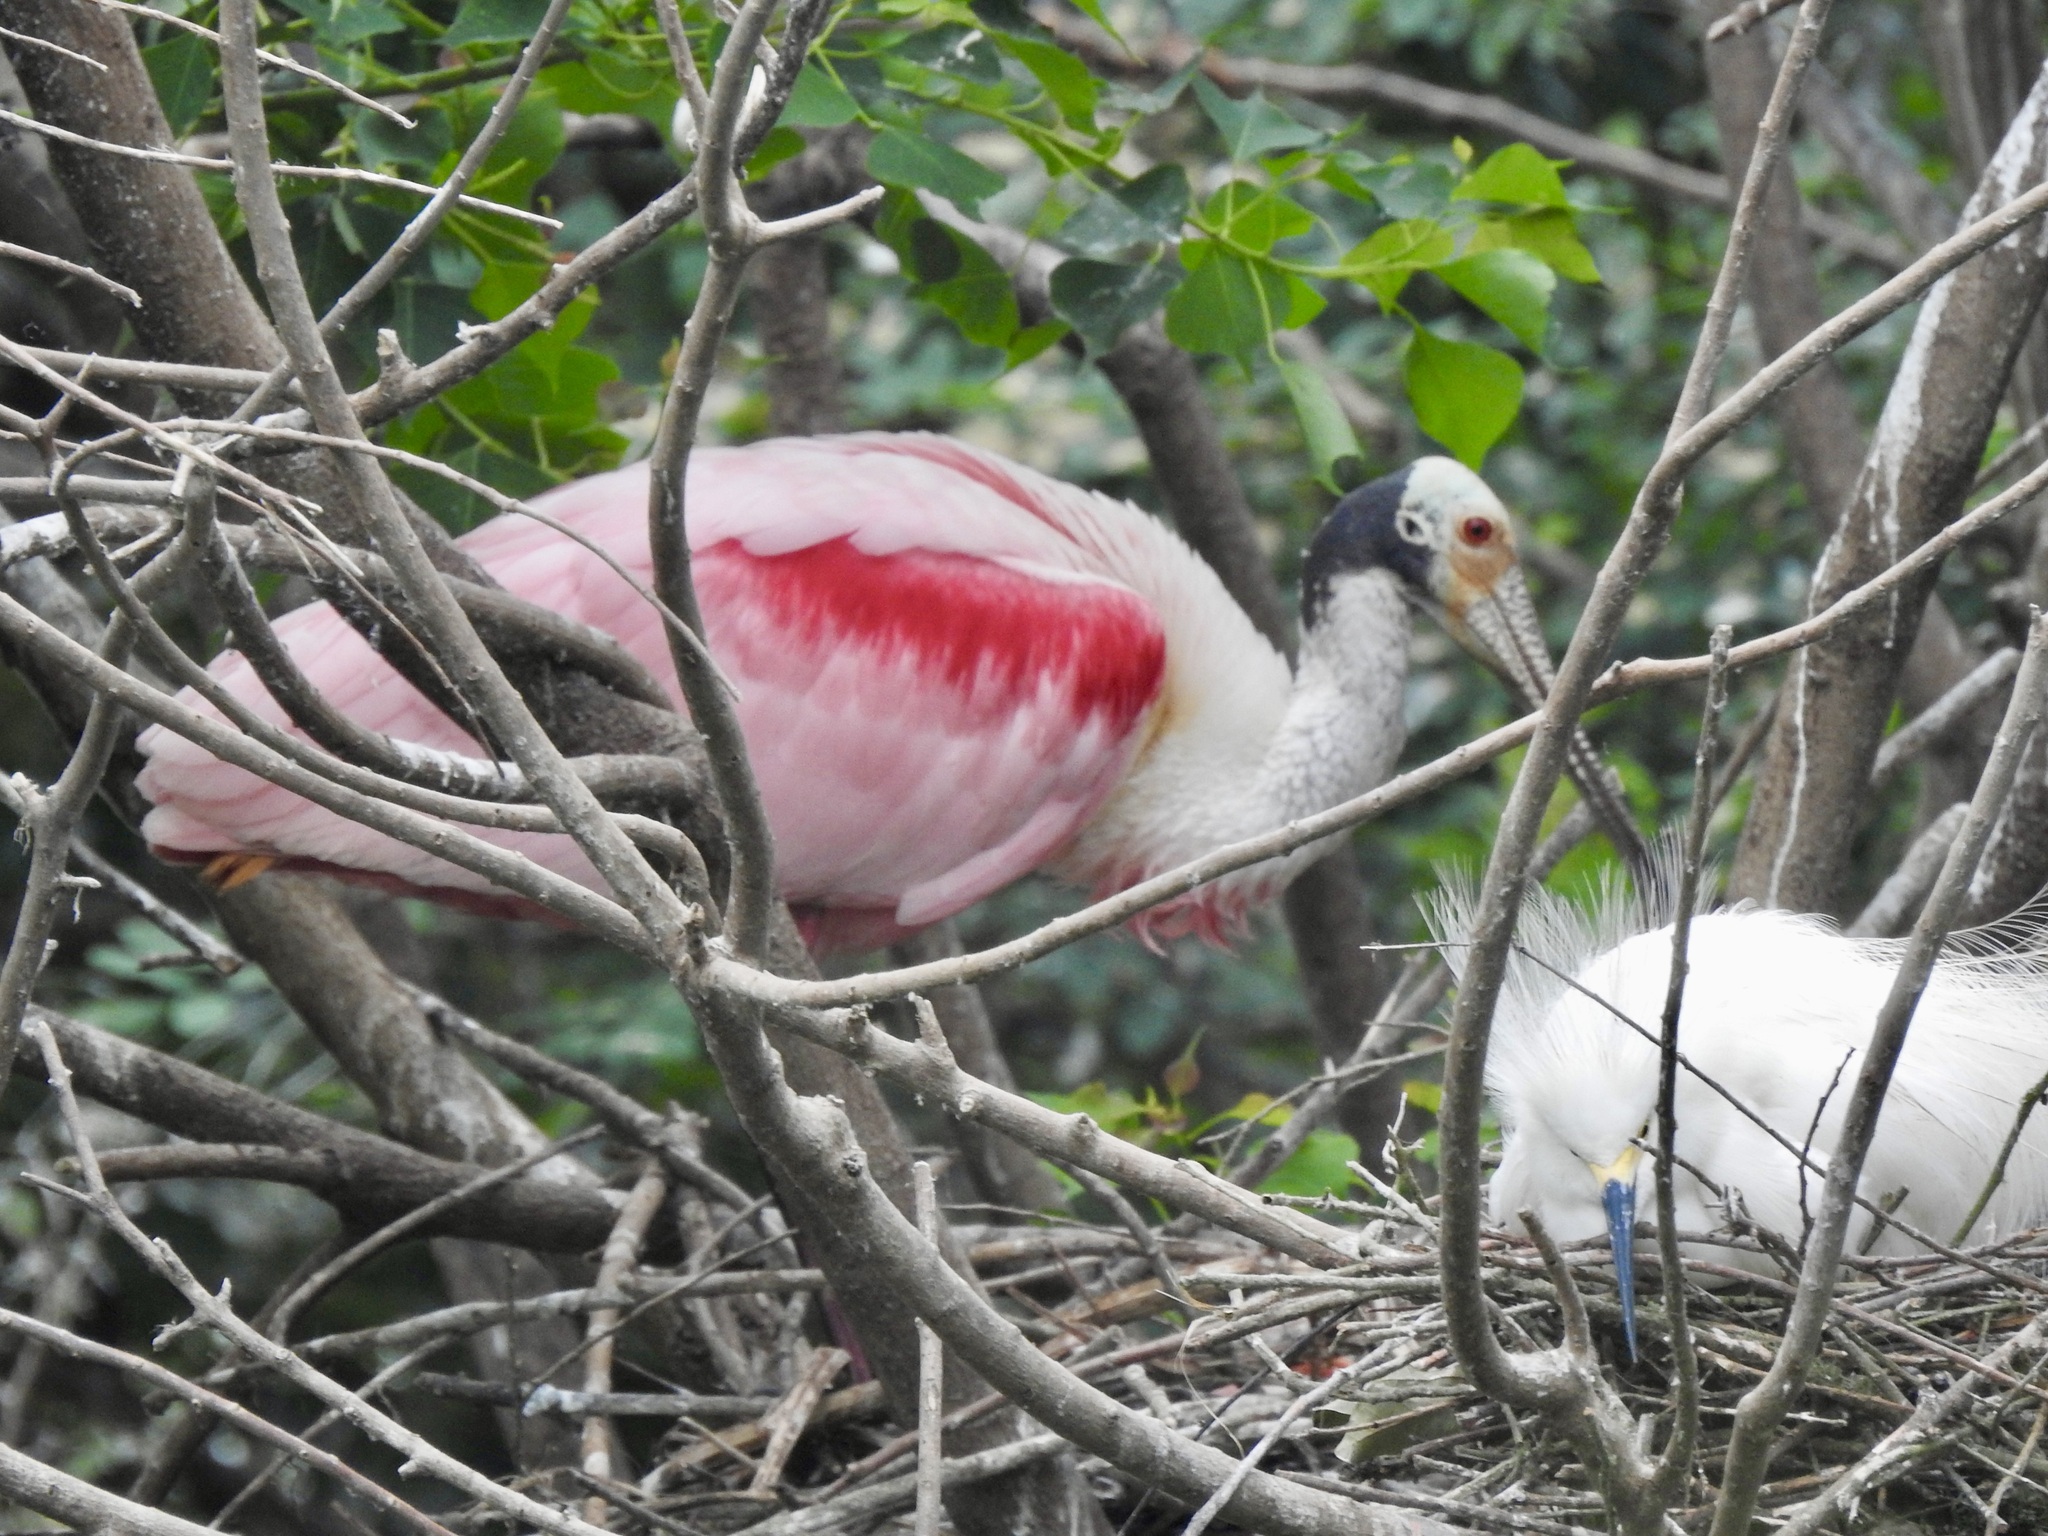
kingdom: Animalia
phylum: Chordata
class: Aves
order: Pelecaniformes
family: Threskiornithidae
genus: Platalea
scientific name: Platalea ajaja
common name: Roseate spoonbill
